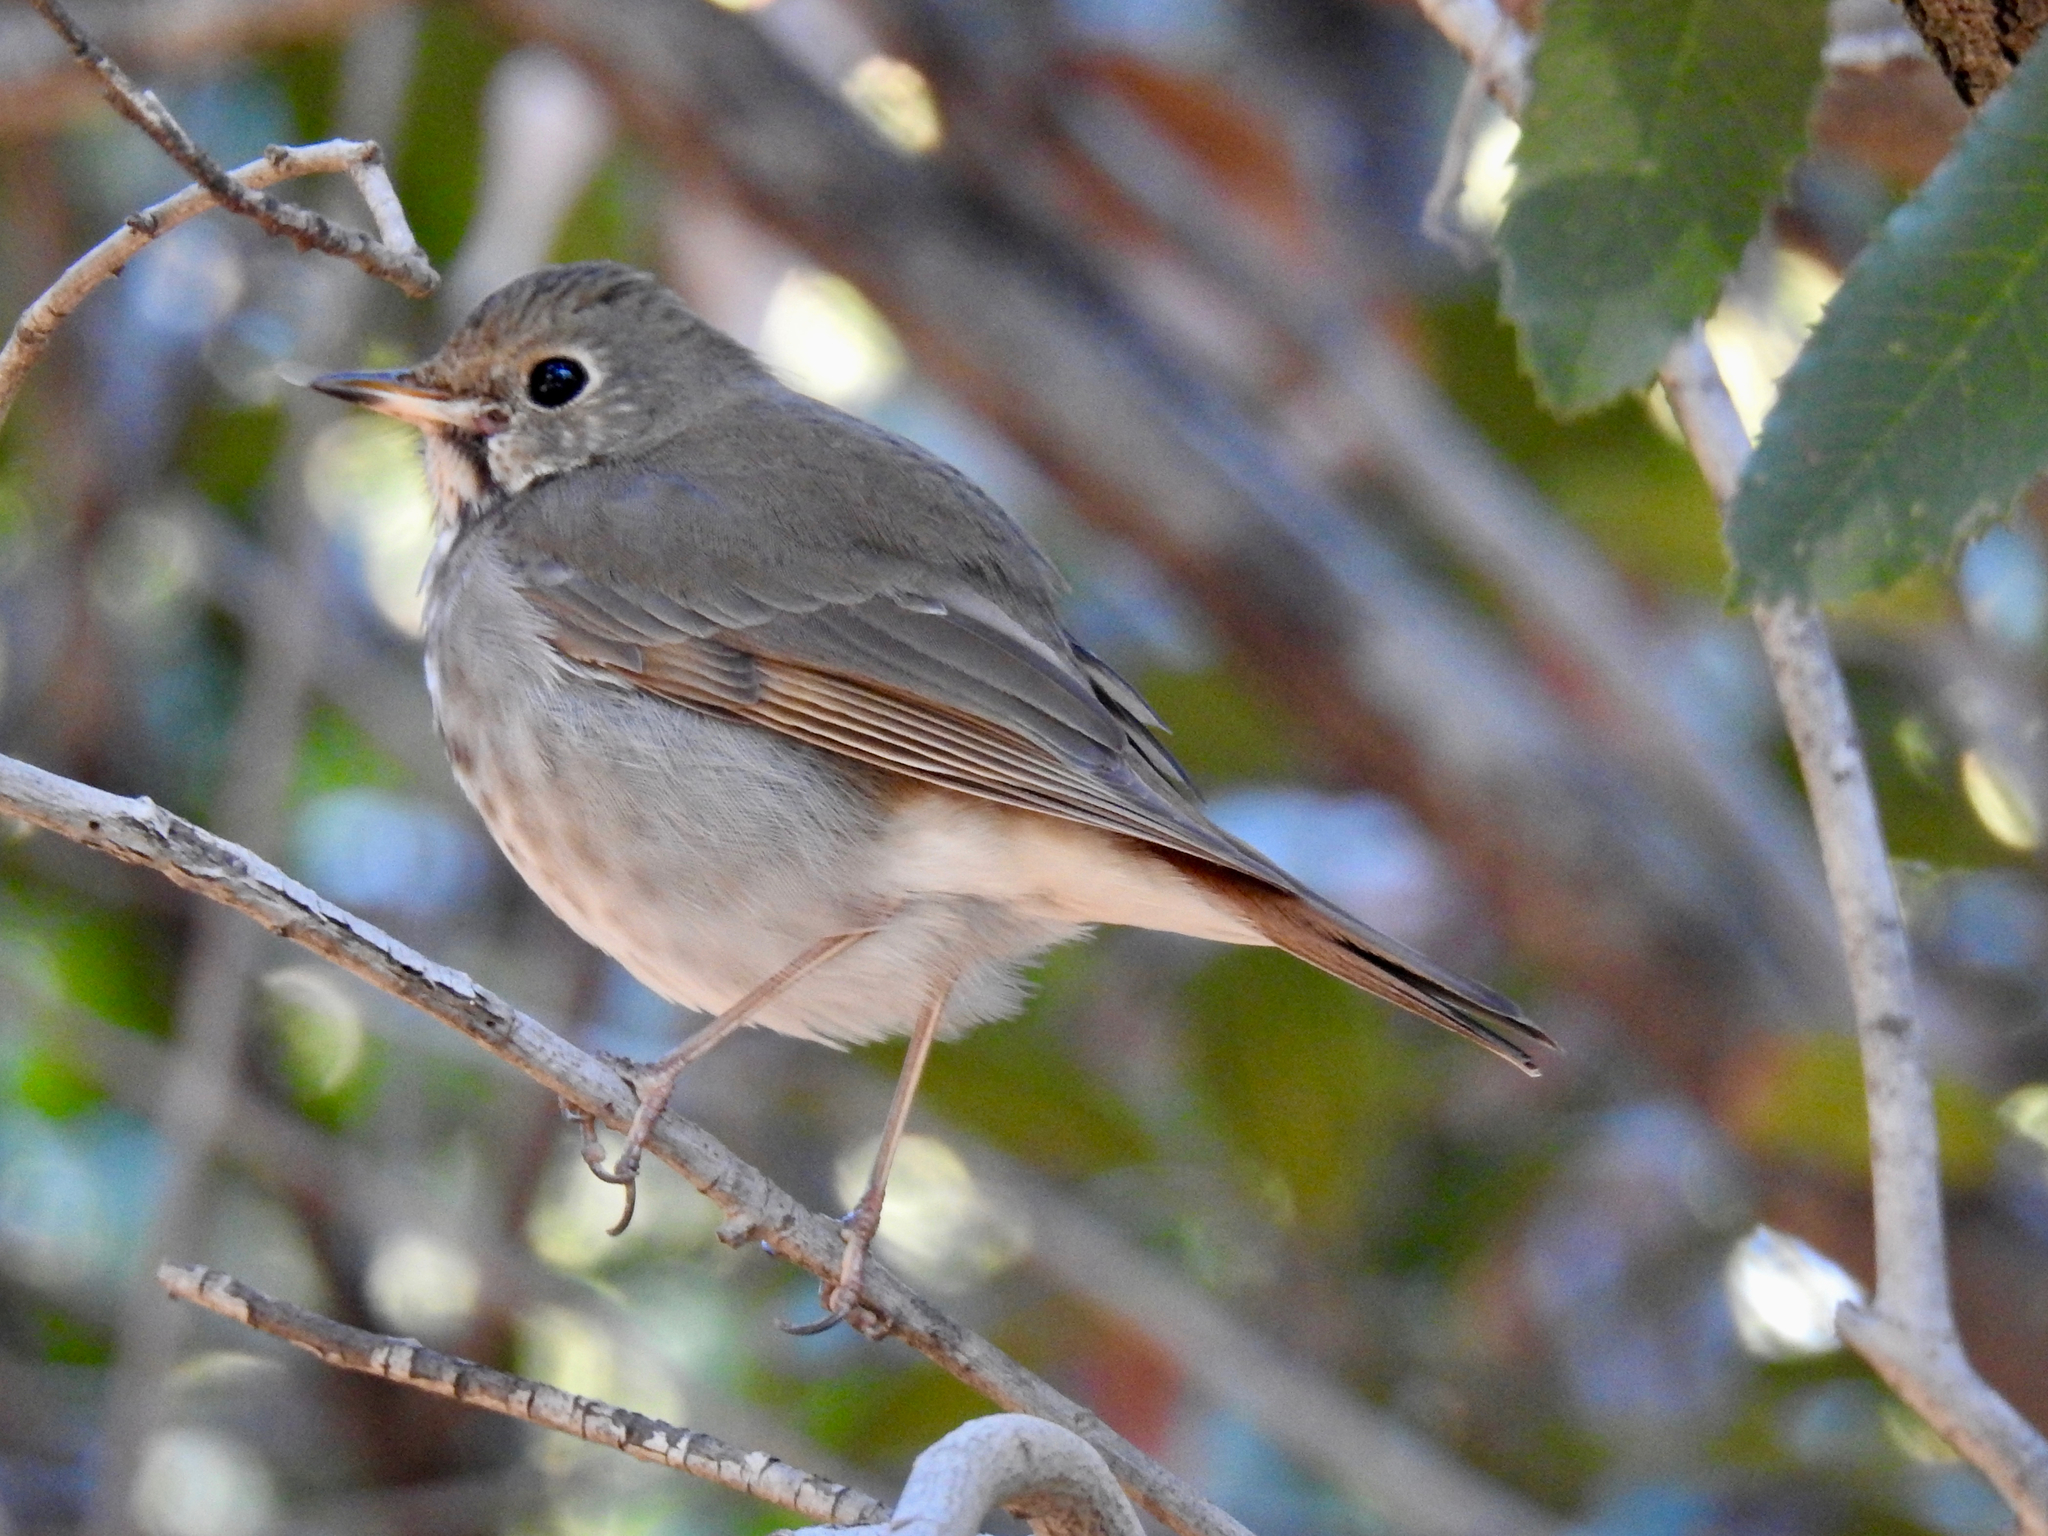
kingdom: Animalia
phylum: Chordata
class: Aves
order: Passeriformes
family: Turdidae
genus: Catharus
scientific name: Catharus guttatus
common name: Hermit thrush
